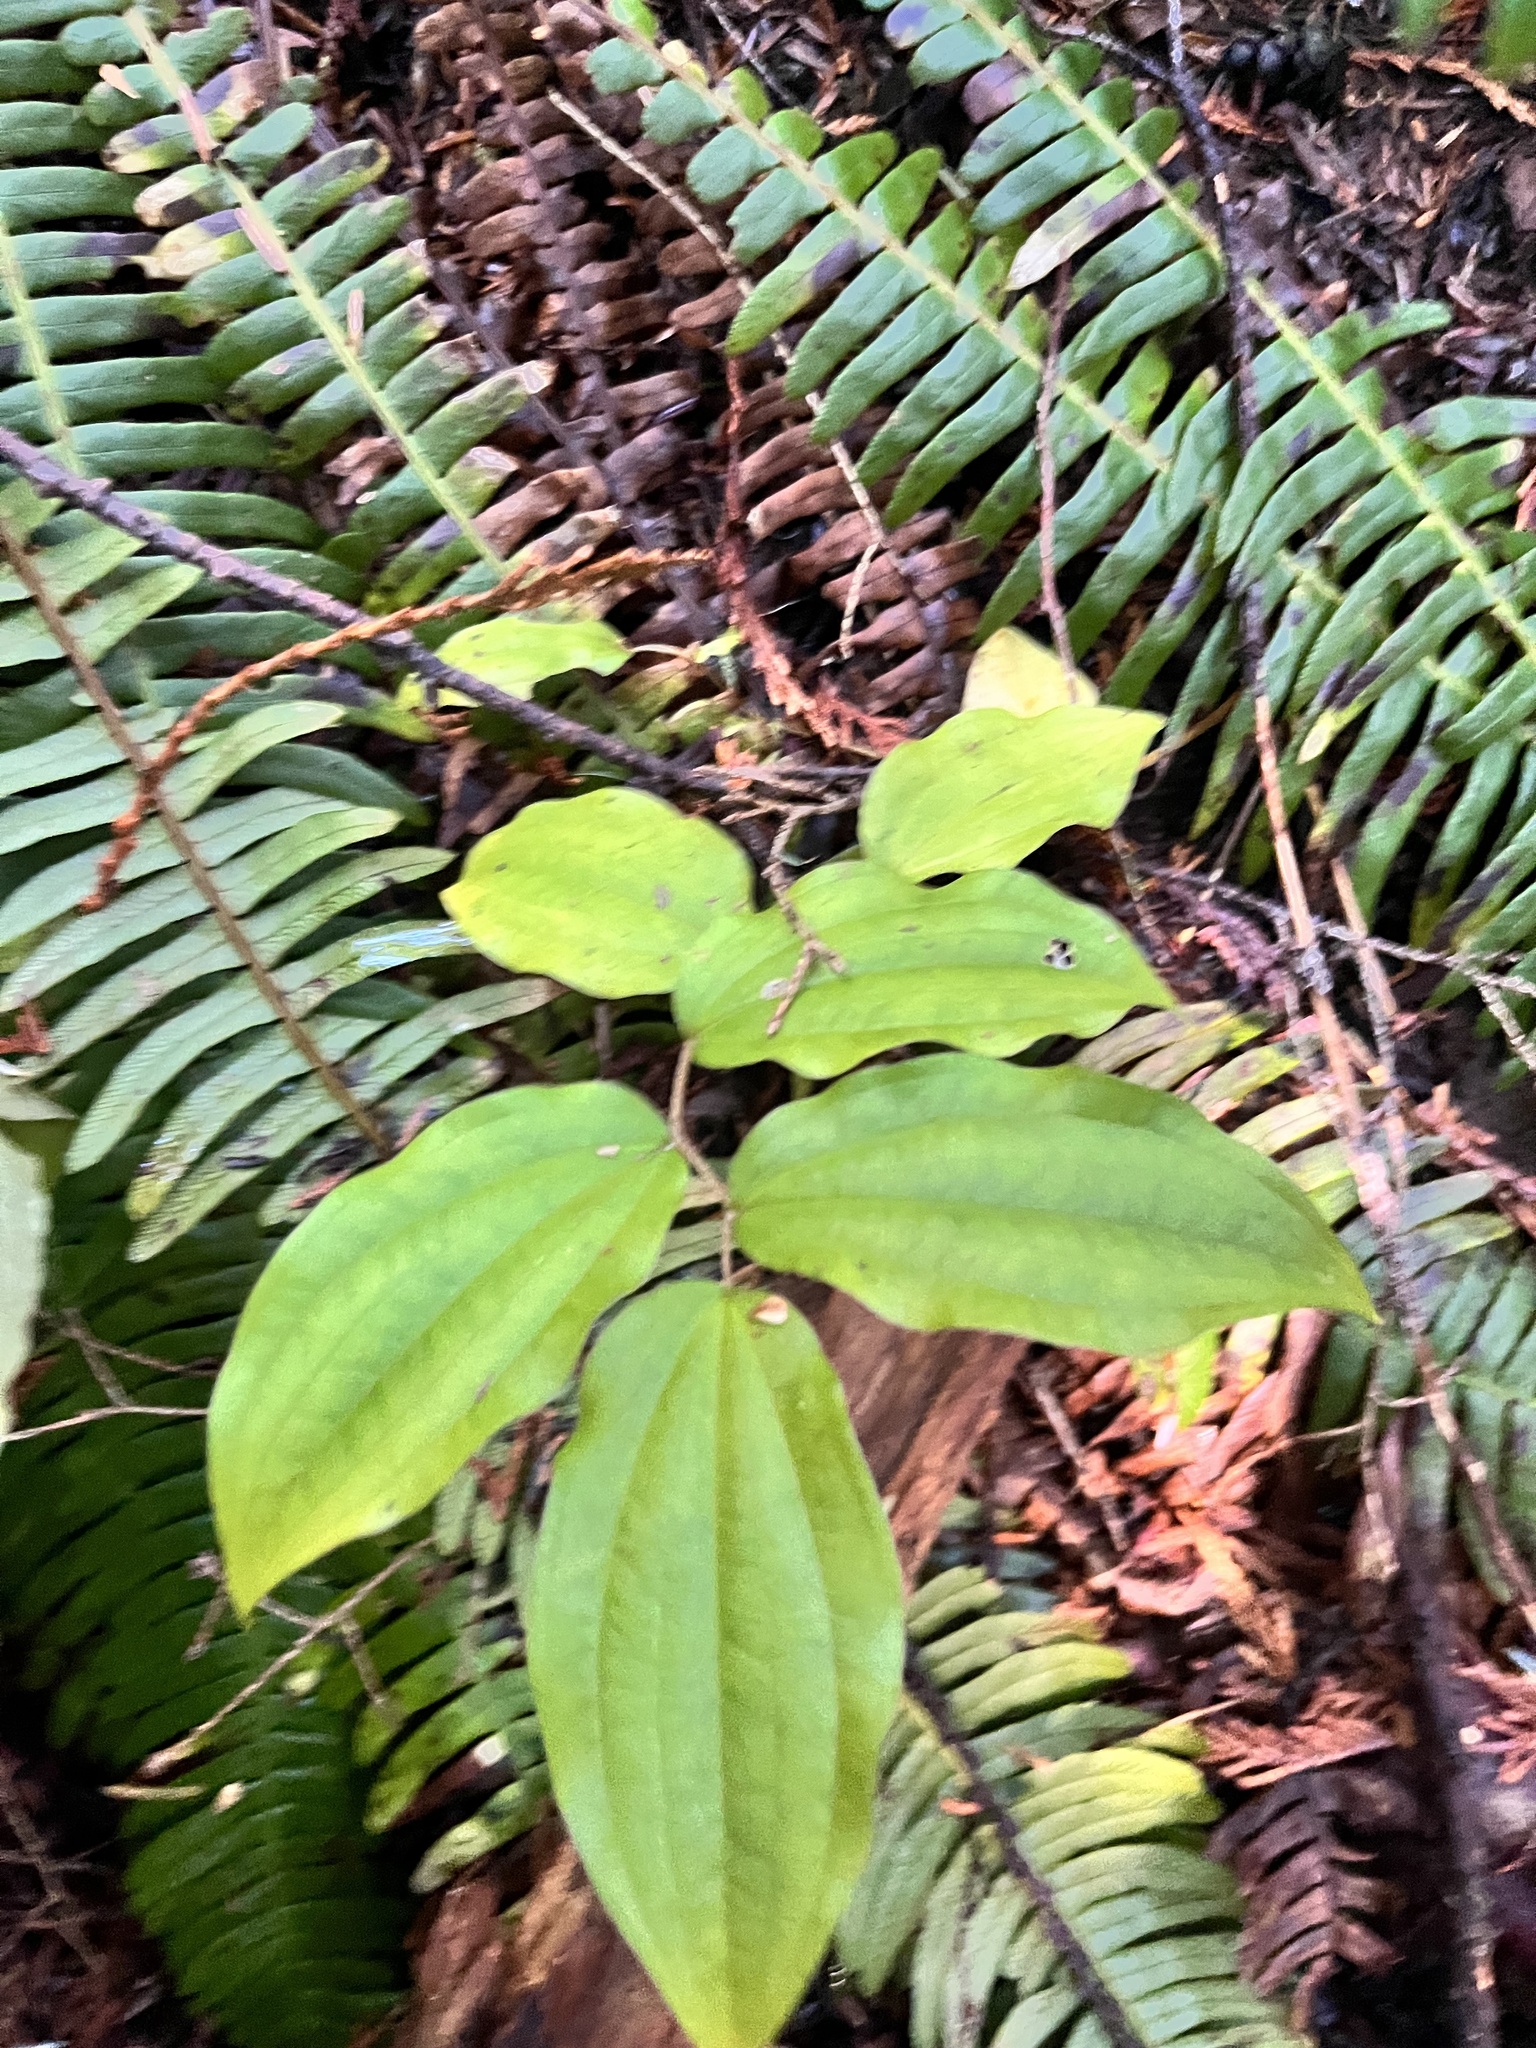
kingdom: Plantae
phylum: Tracheophyta
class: Liliopsida
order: Liliales
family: Liliaceae
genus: Prosartes
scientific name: Prosartes smithii
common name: Fairy-lantern
